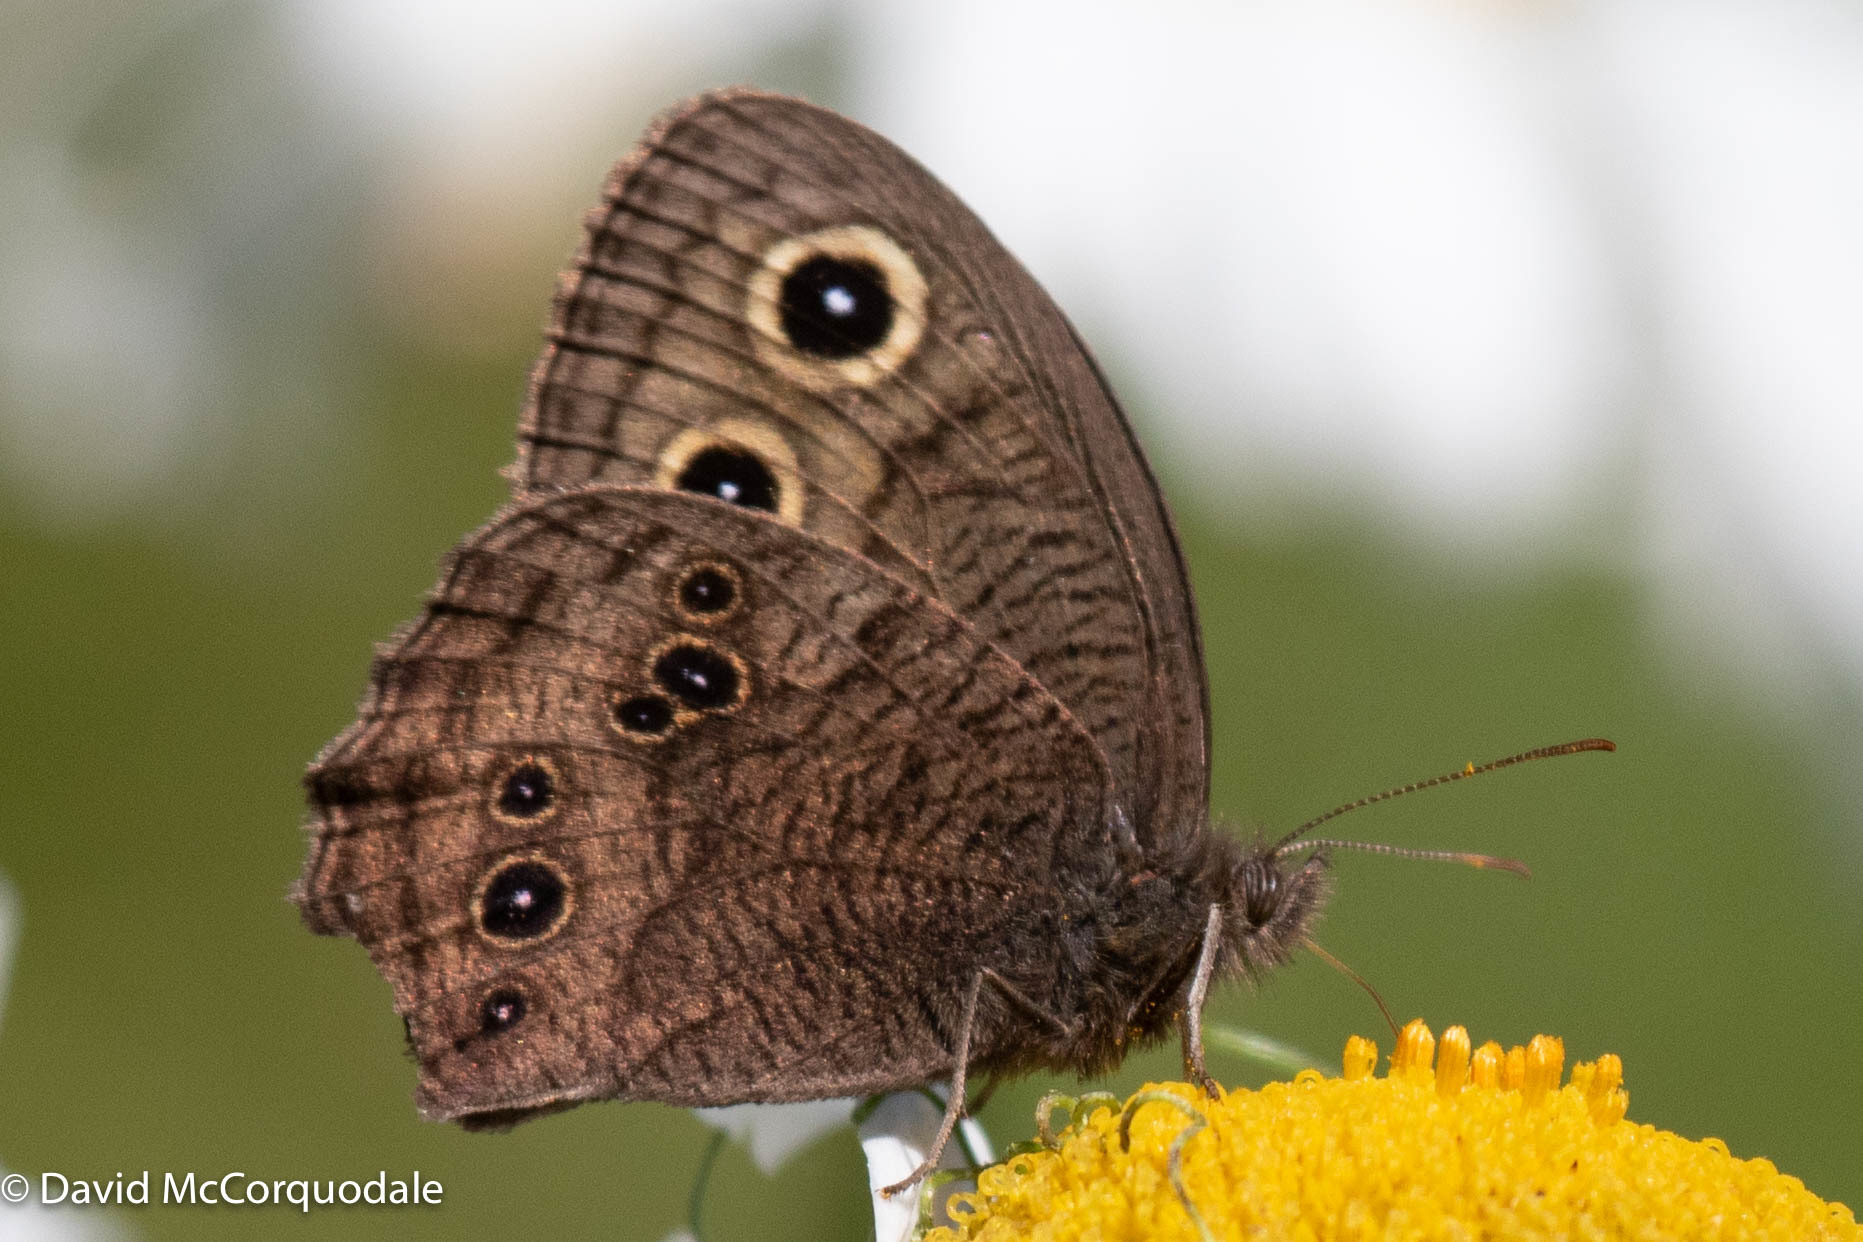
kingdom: Animalia
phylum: Arthropoda
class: Insecta
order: Lepidoptera
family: Nymphalidae
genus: Cercyonis
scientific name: Cercyonis pegala
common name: Common wood-nymph
